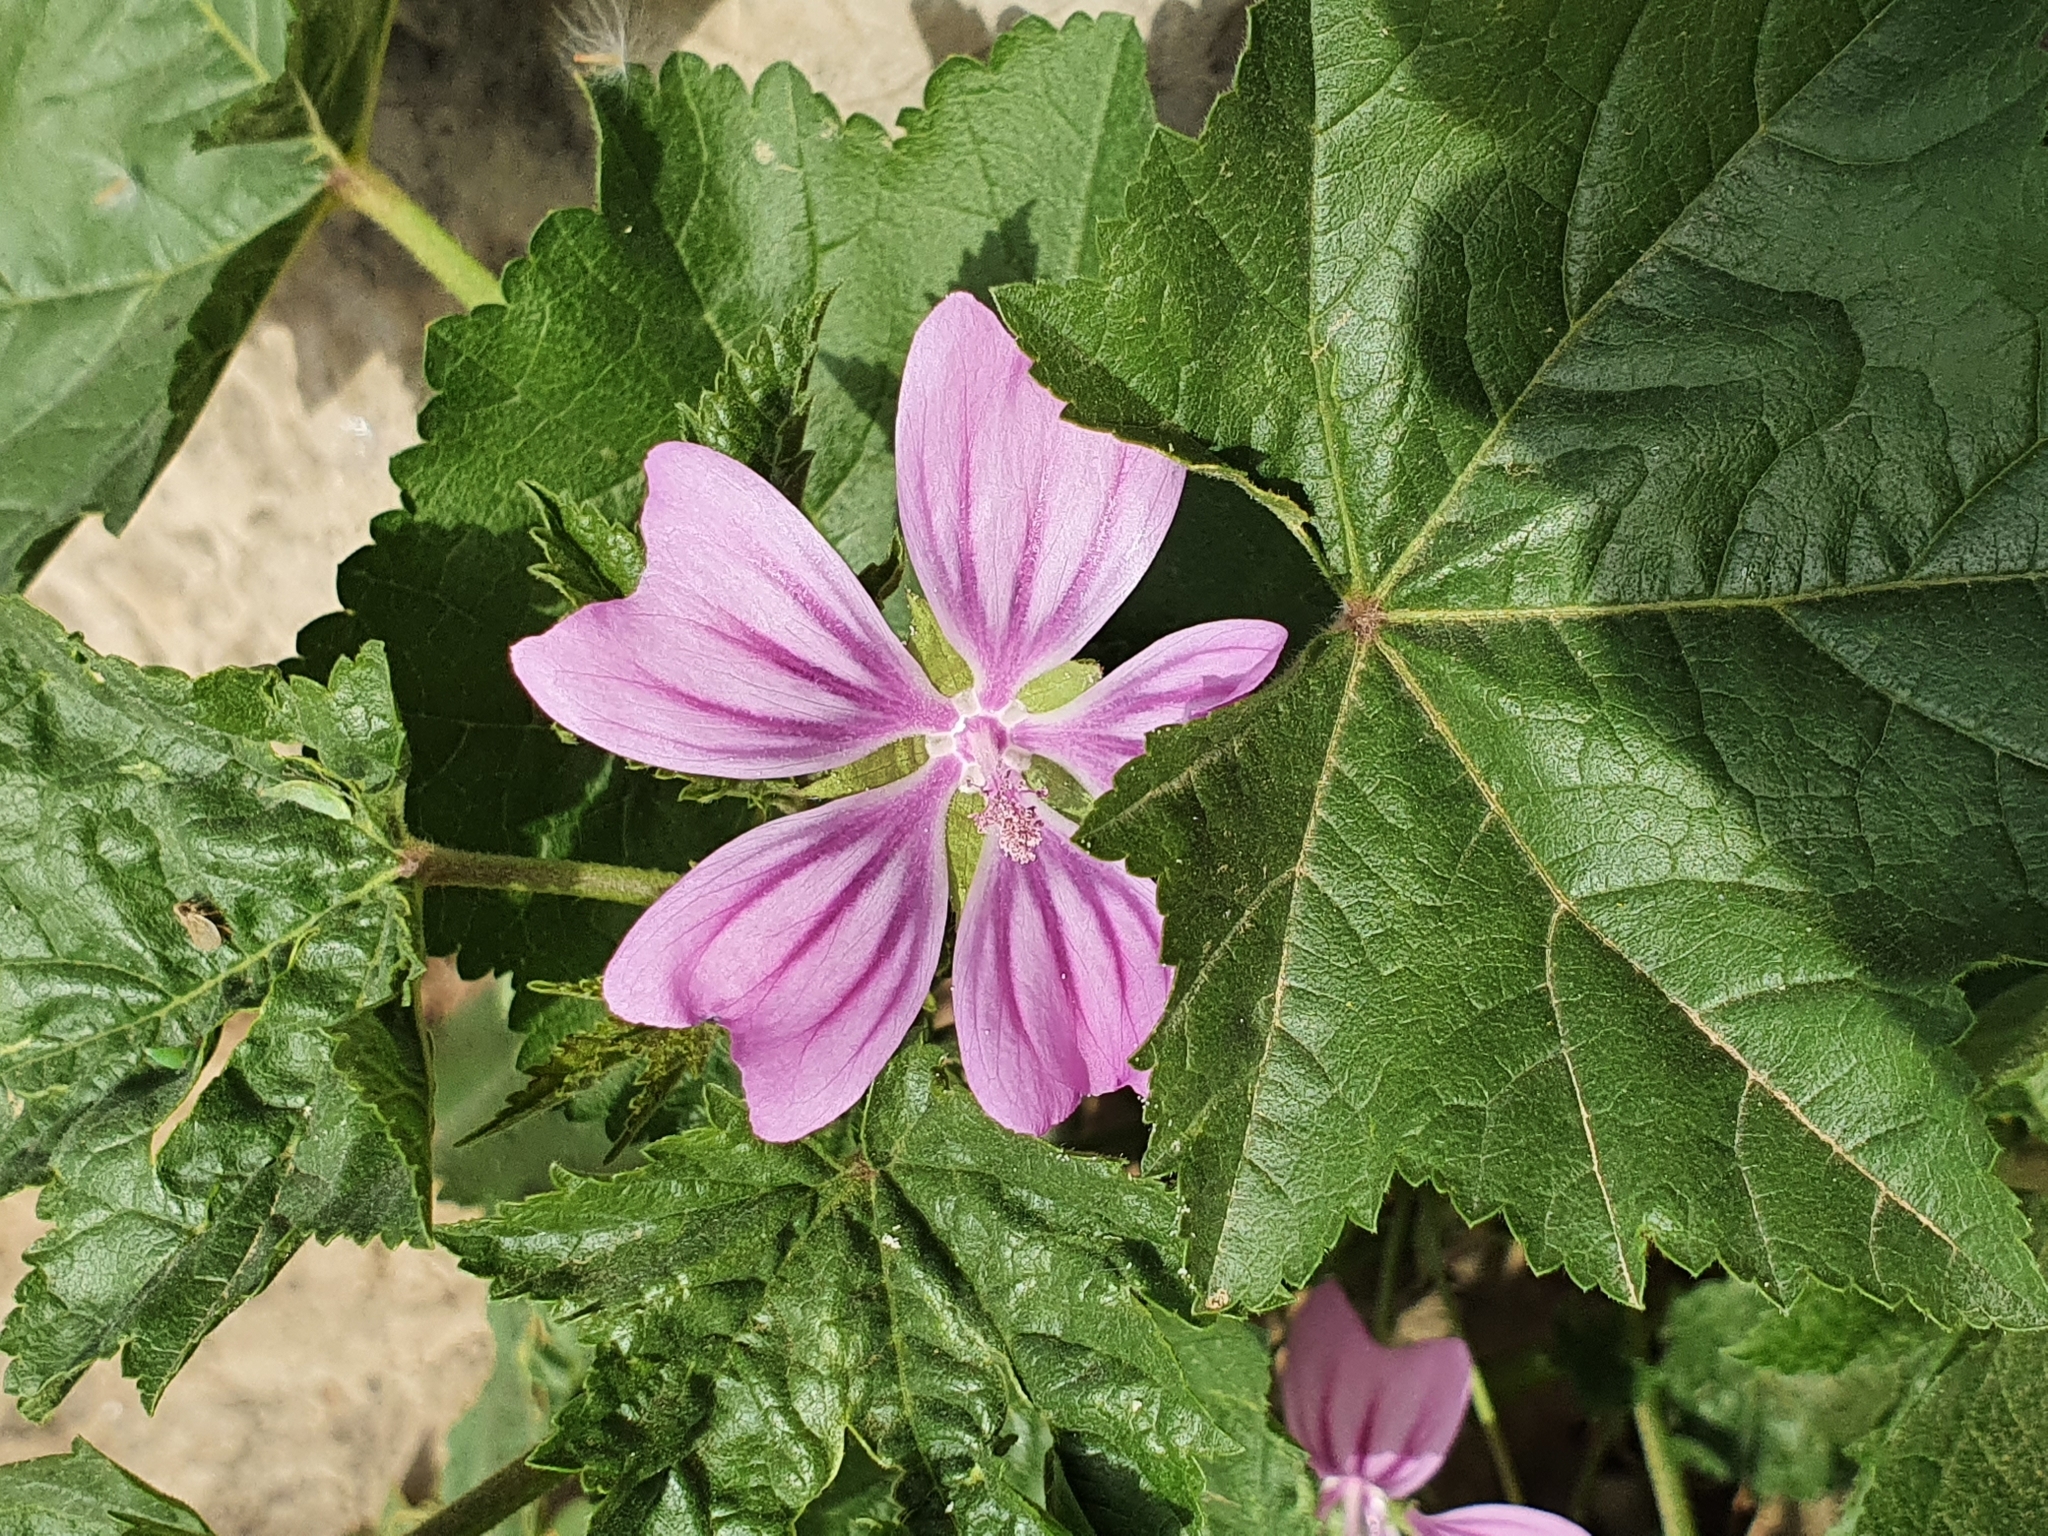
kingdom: Plantae
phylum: Tracheophyta
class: Magnoliopsida
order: Malvales
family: Malvaceae
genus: Malva
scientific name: Malva sylvestris
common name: Common mallow
